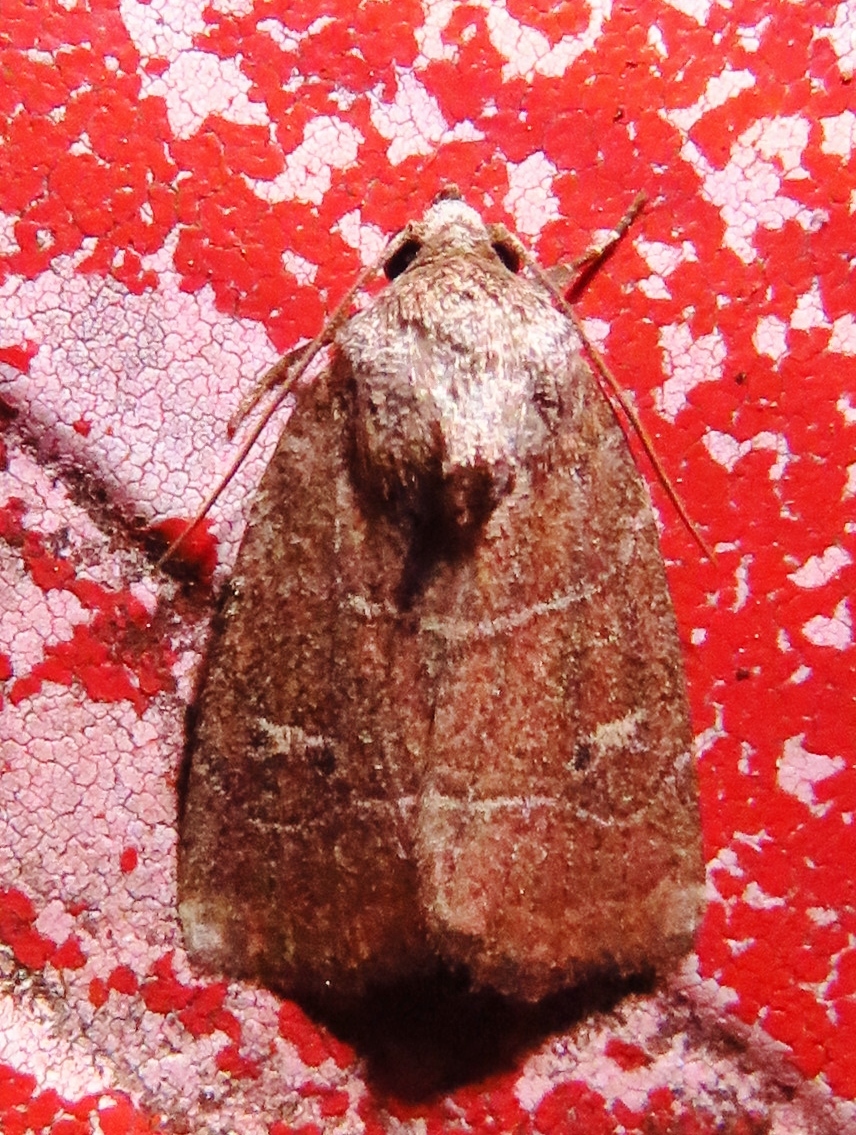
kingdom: Animalia
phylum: Arthropoda
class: Insecta
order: Lepidoptera
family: Noctuidae
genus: Elaphria
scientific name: Elaphria grata
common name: Grateful midget moth
